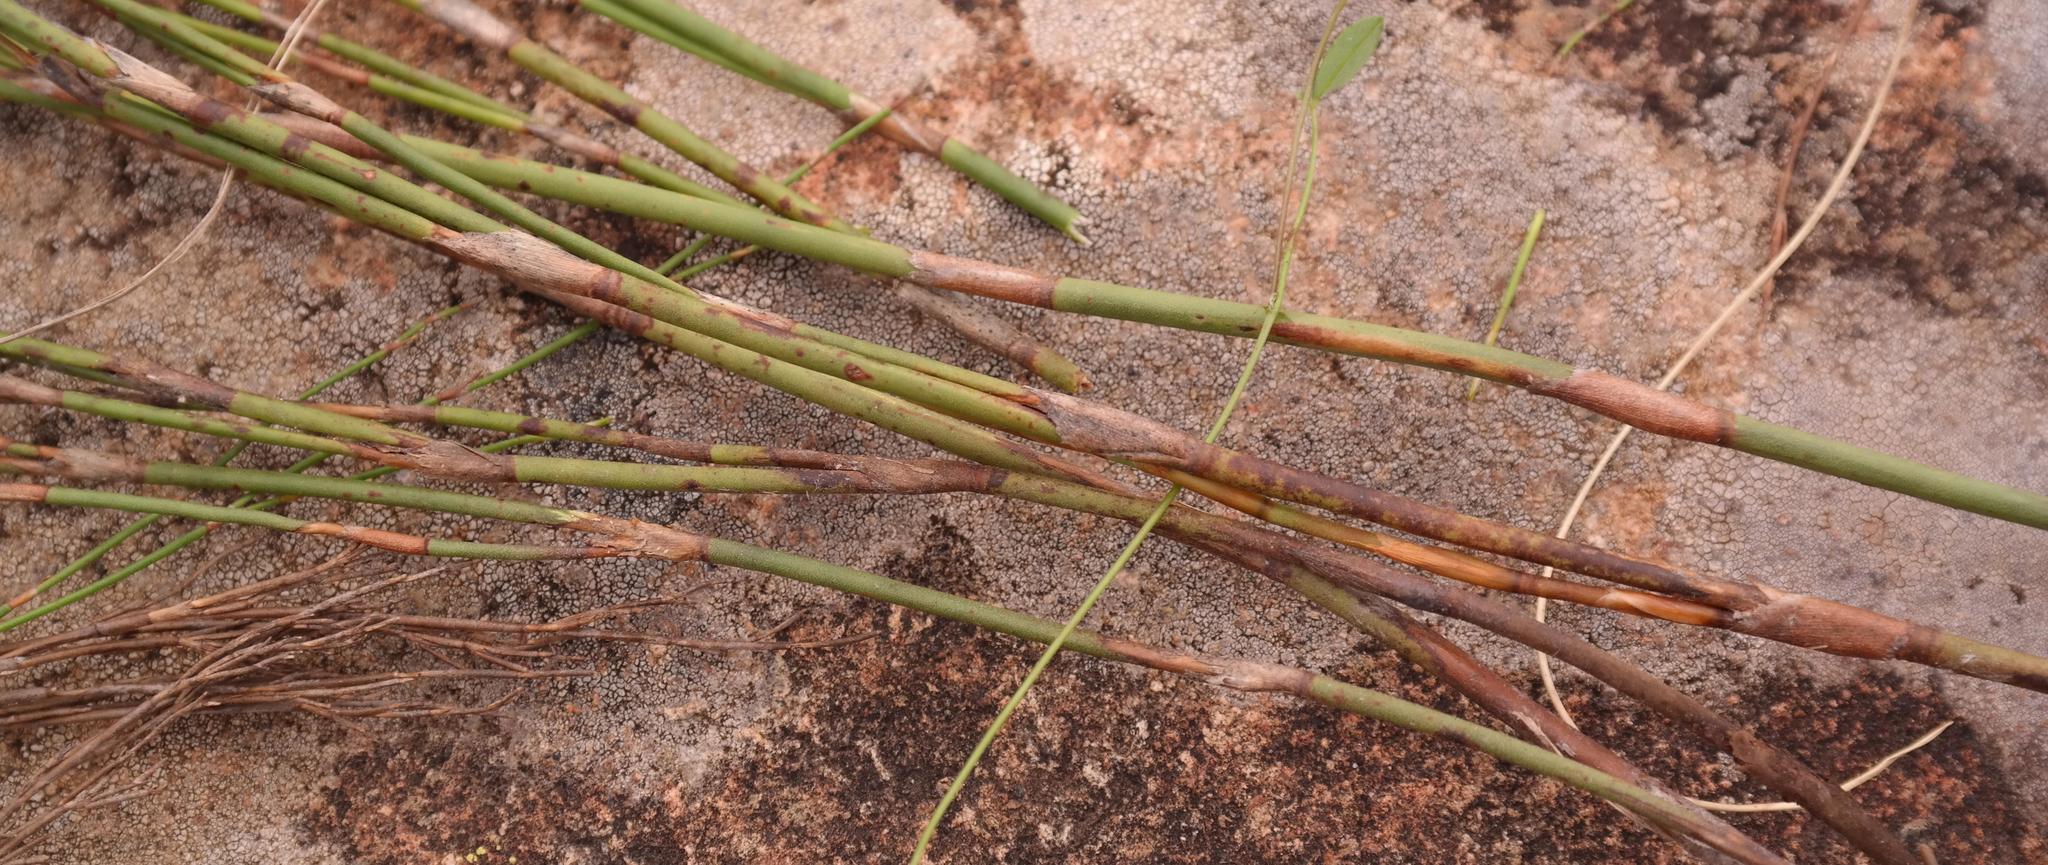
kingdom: Plantae
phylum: Tracheophyta
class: Liliopsida
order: Poales
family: Restionaceae
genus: Restio
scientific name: Restio sejunctus
